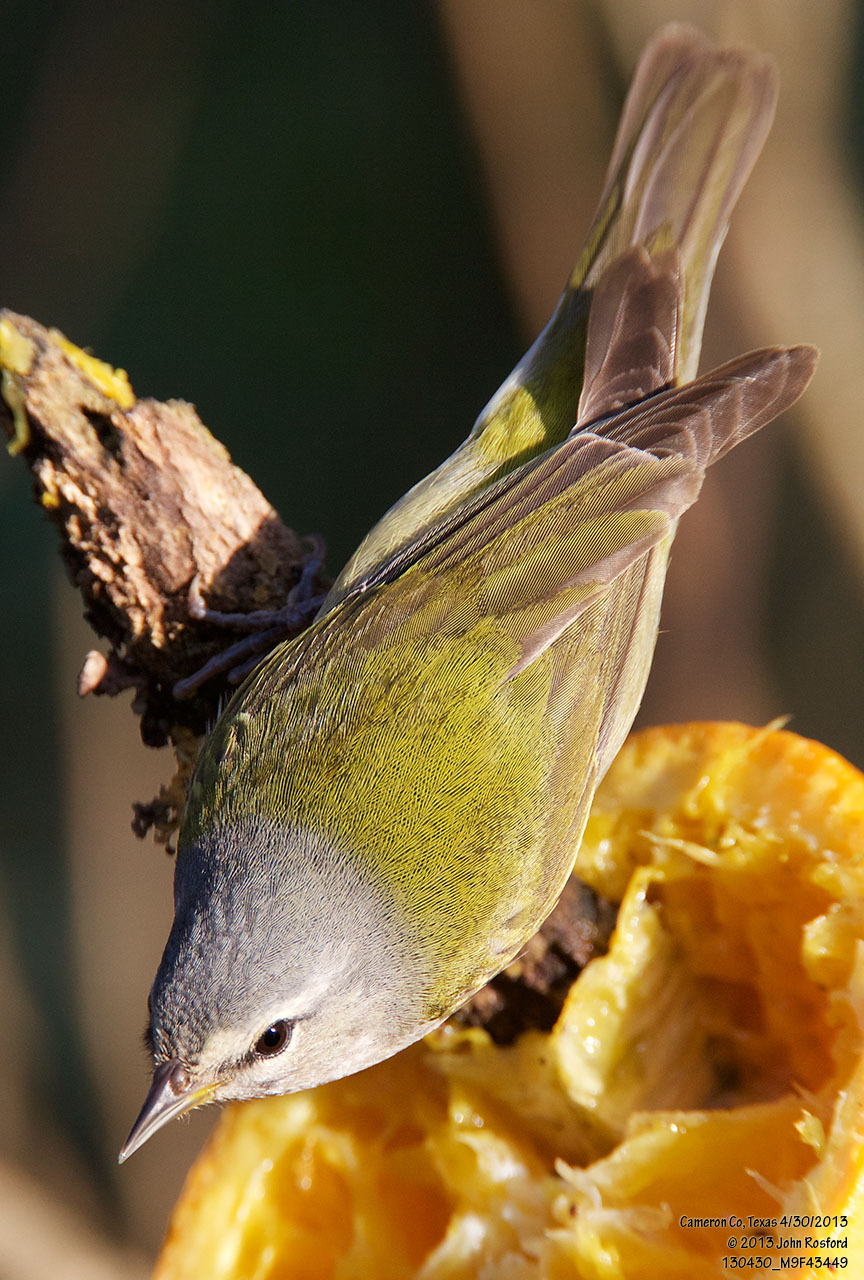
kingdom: Animalia
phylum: Chordata
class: Aves
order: Passeriformes
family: Parulidae
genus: Leiothlypis
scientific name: Leiothlypis peregrina
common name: Tennessee warbler
